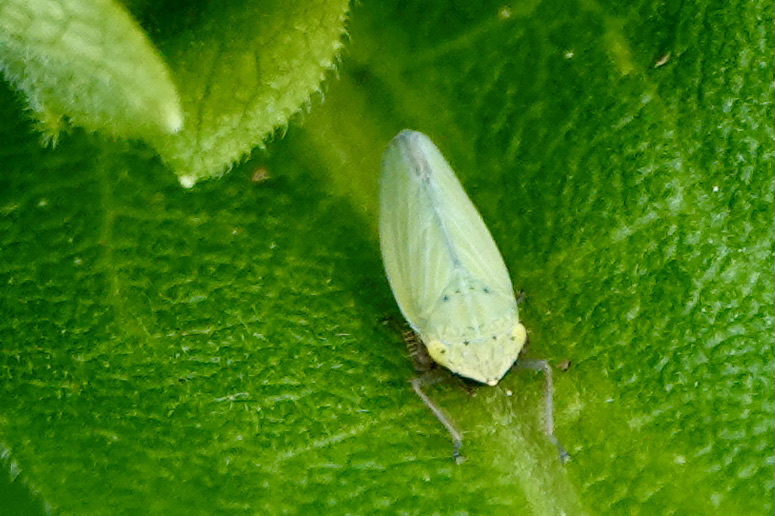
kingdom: Animalia
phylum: Arthropoda
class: Insecta
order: Hemiptera
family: Cicadellidae
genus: Draeculacephala
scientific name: Draeculacephala balli
